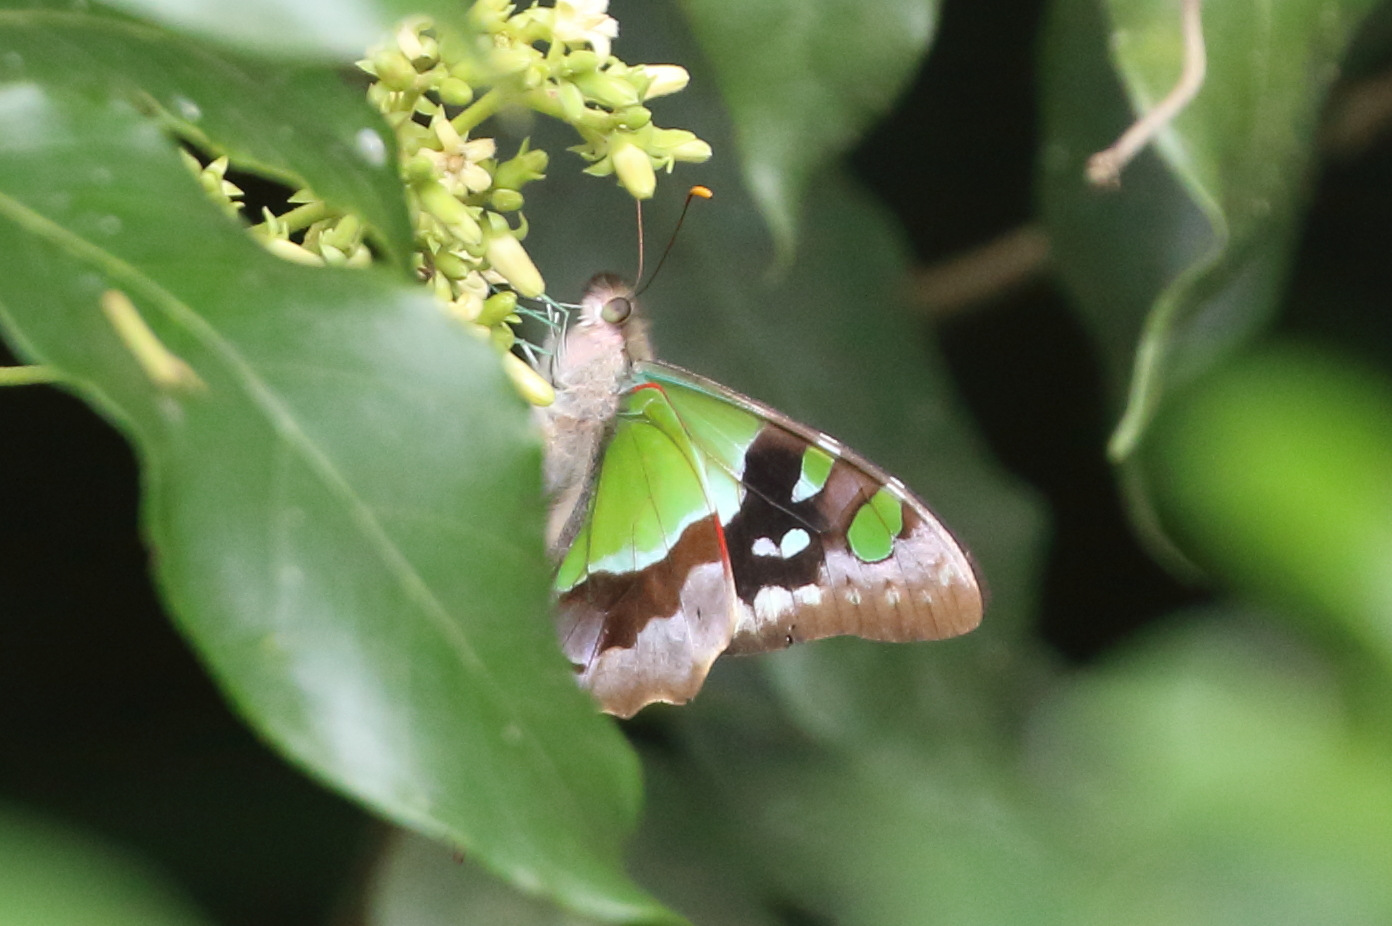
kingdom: Animalia
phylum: Arthropoda
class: Insecta
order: Lepidoptera
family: Papilionidae
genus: Graphium
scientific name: Graphium macleayanus
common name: Macleay's swallowtail
